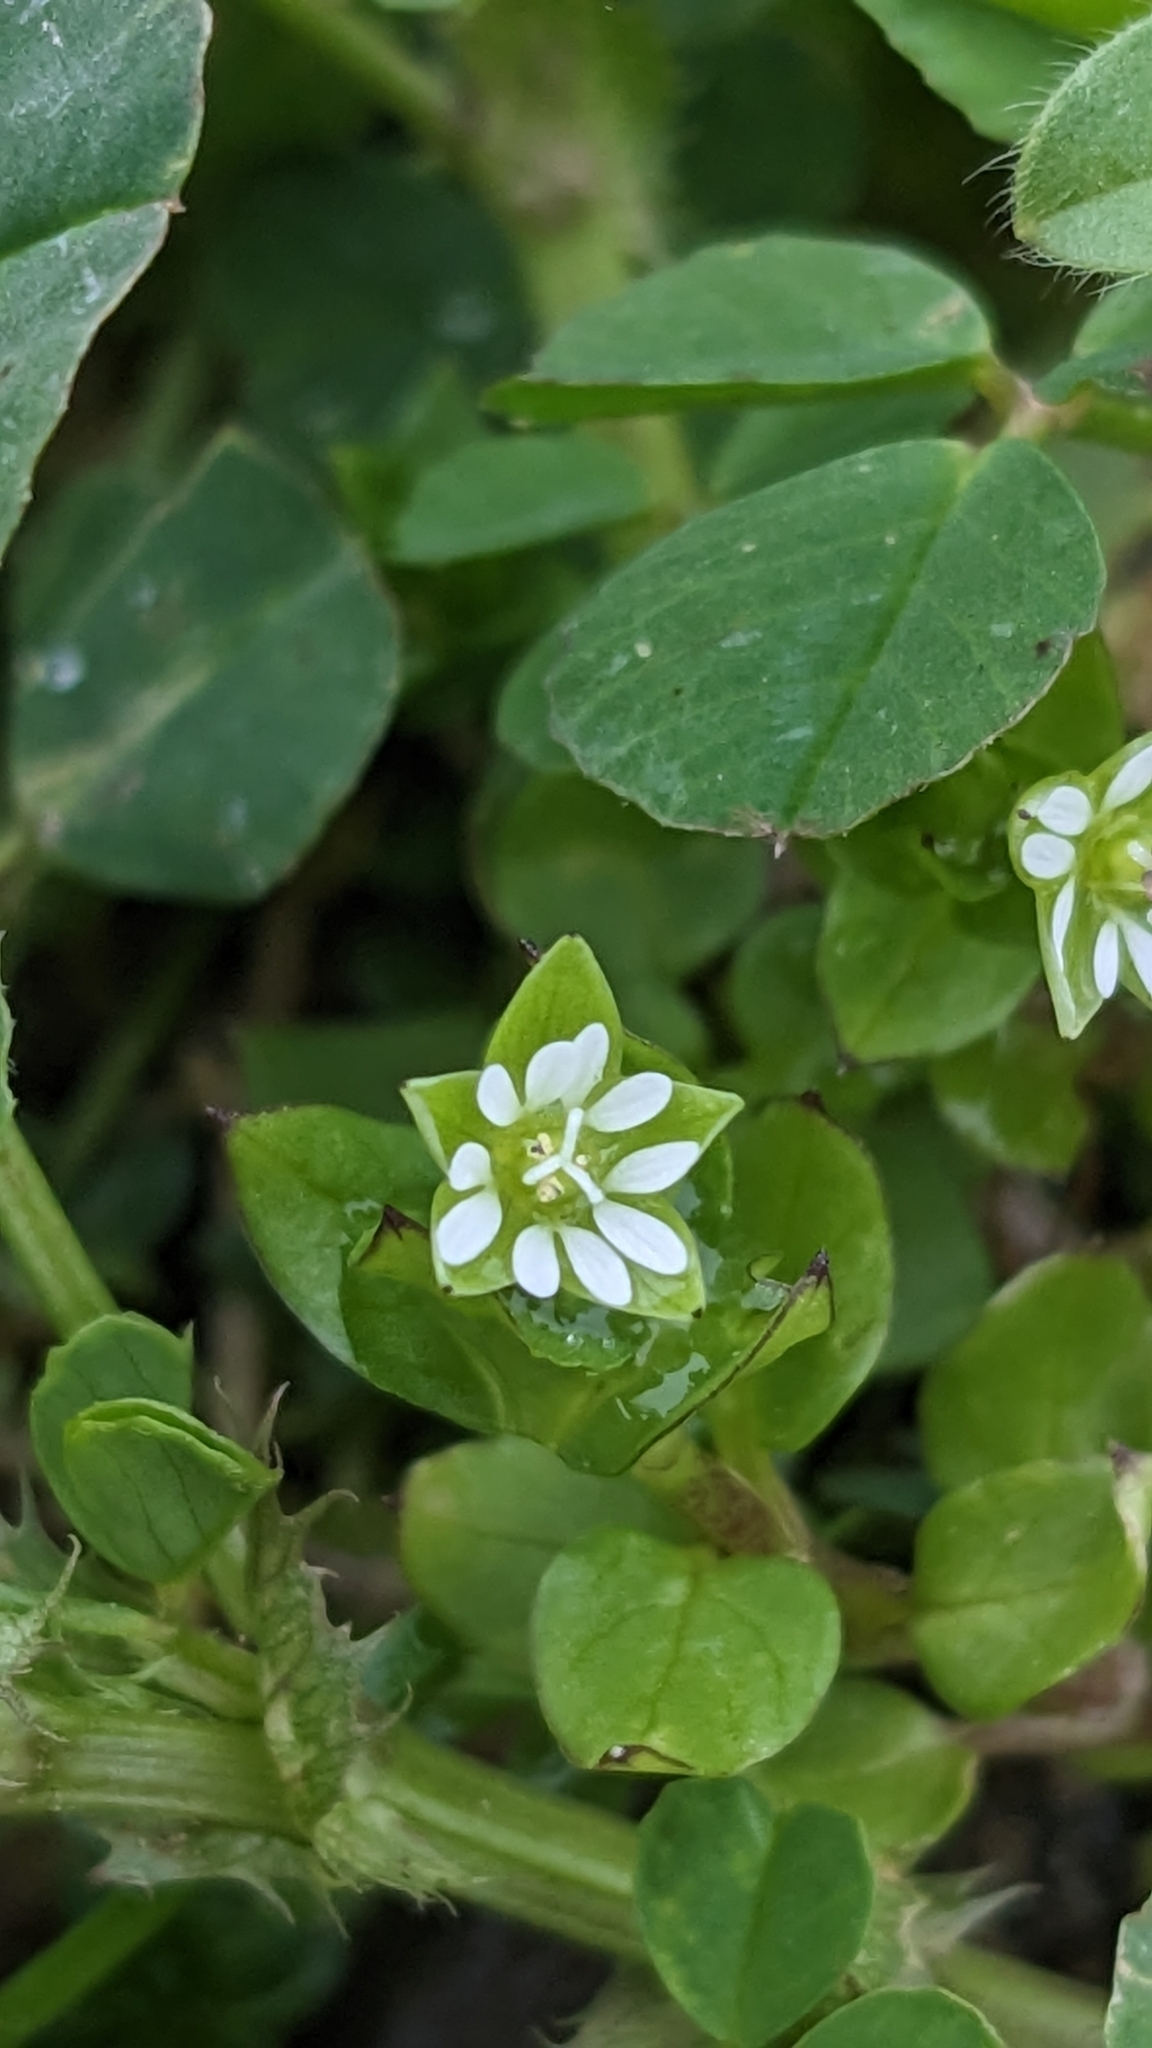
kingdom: Plantae
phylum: Tracheophyta
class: Magnoliopsida
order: Caryophyllales
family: Caryophyllaceae
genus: Stellaria
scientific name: Stellaria media
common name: Common chickweed
